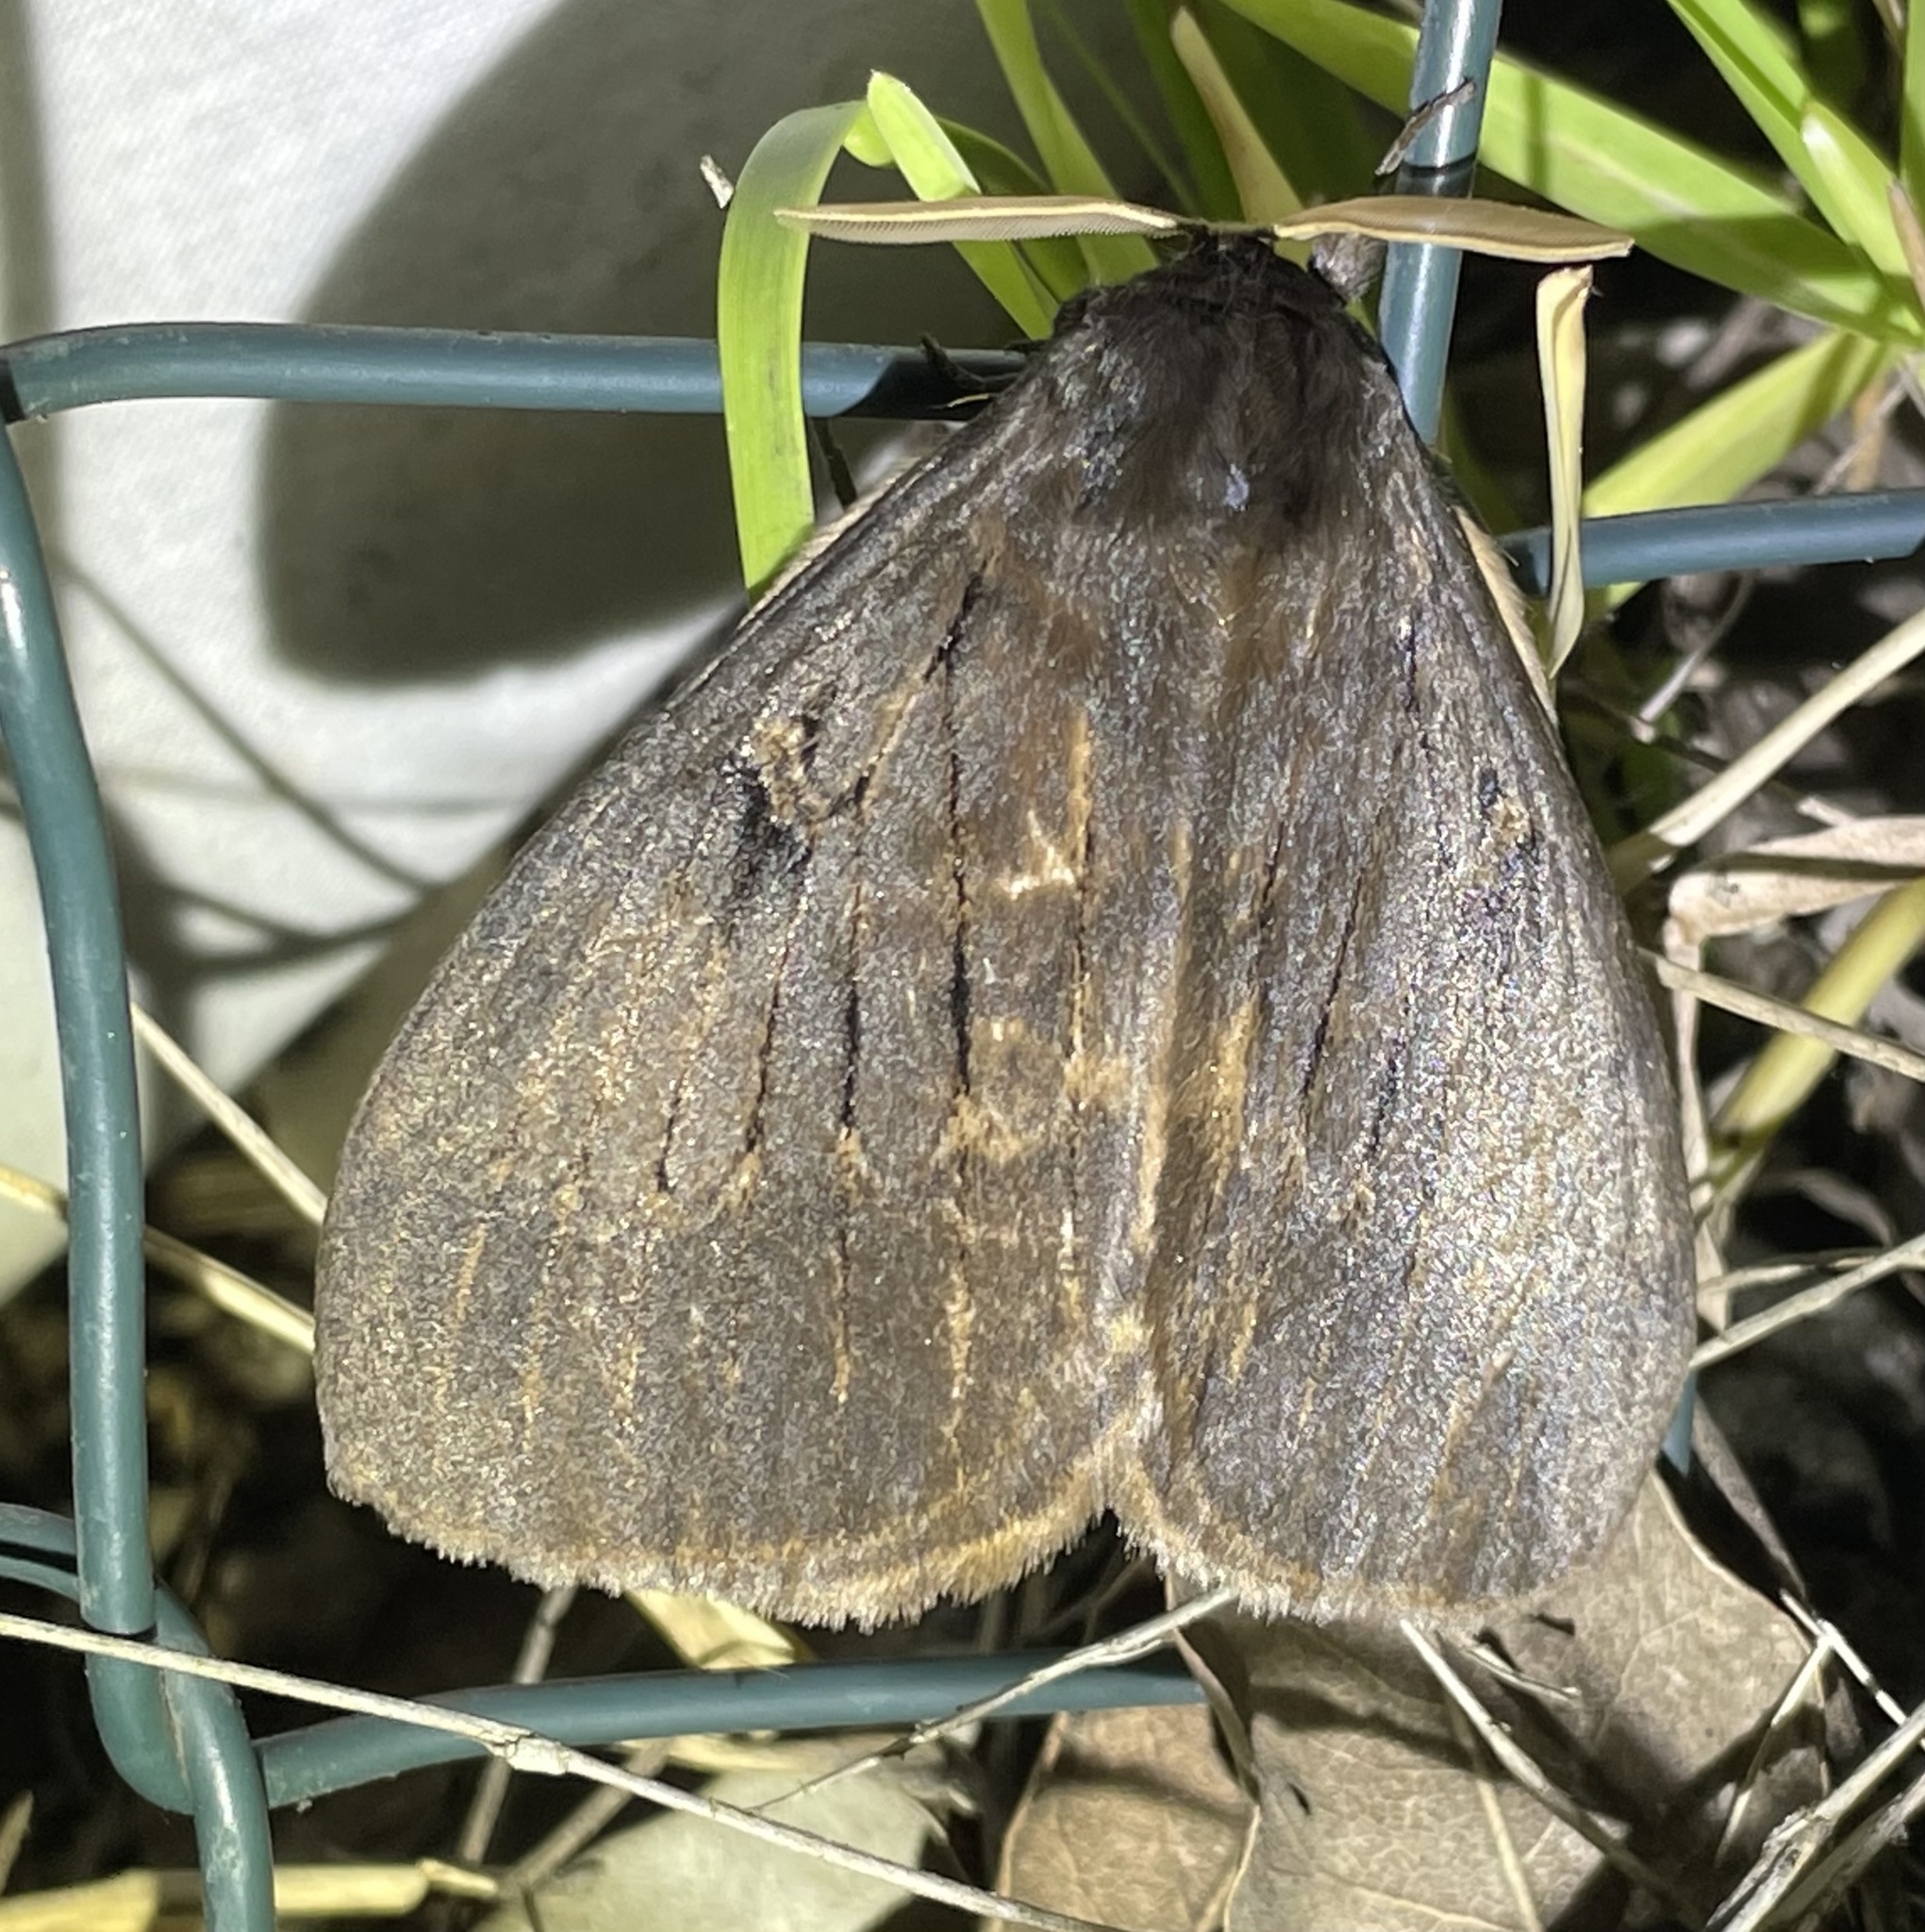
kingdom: Animalia
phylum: Arthropoda
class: Insecta
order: Lepidoptera
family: Eupterotidae
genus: Jana
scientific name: Jana tantalus
